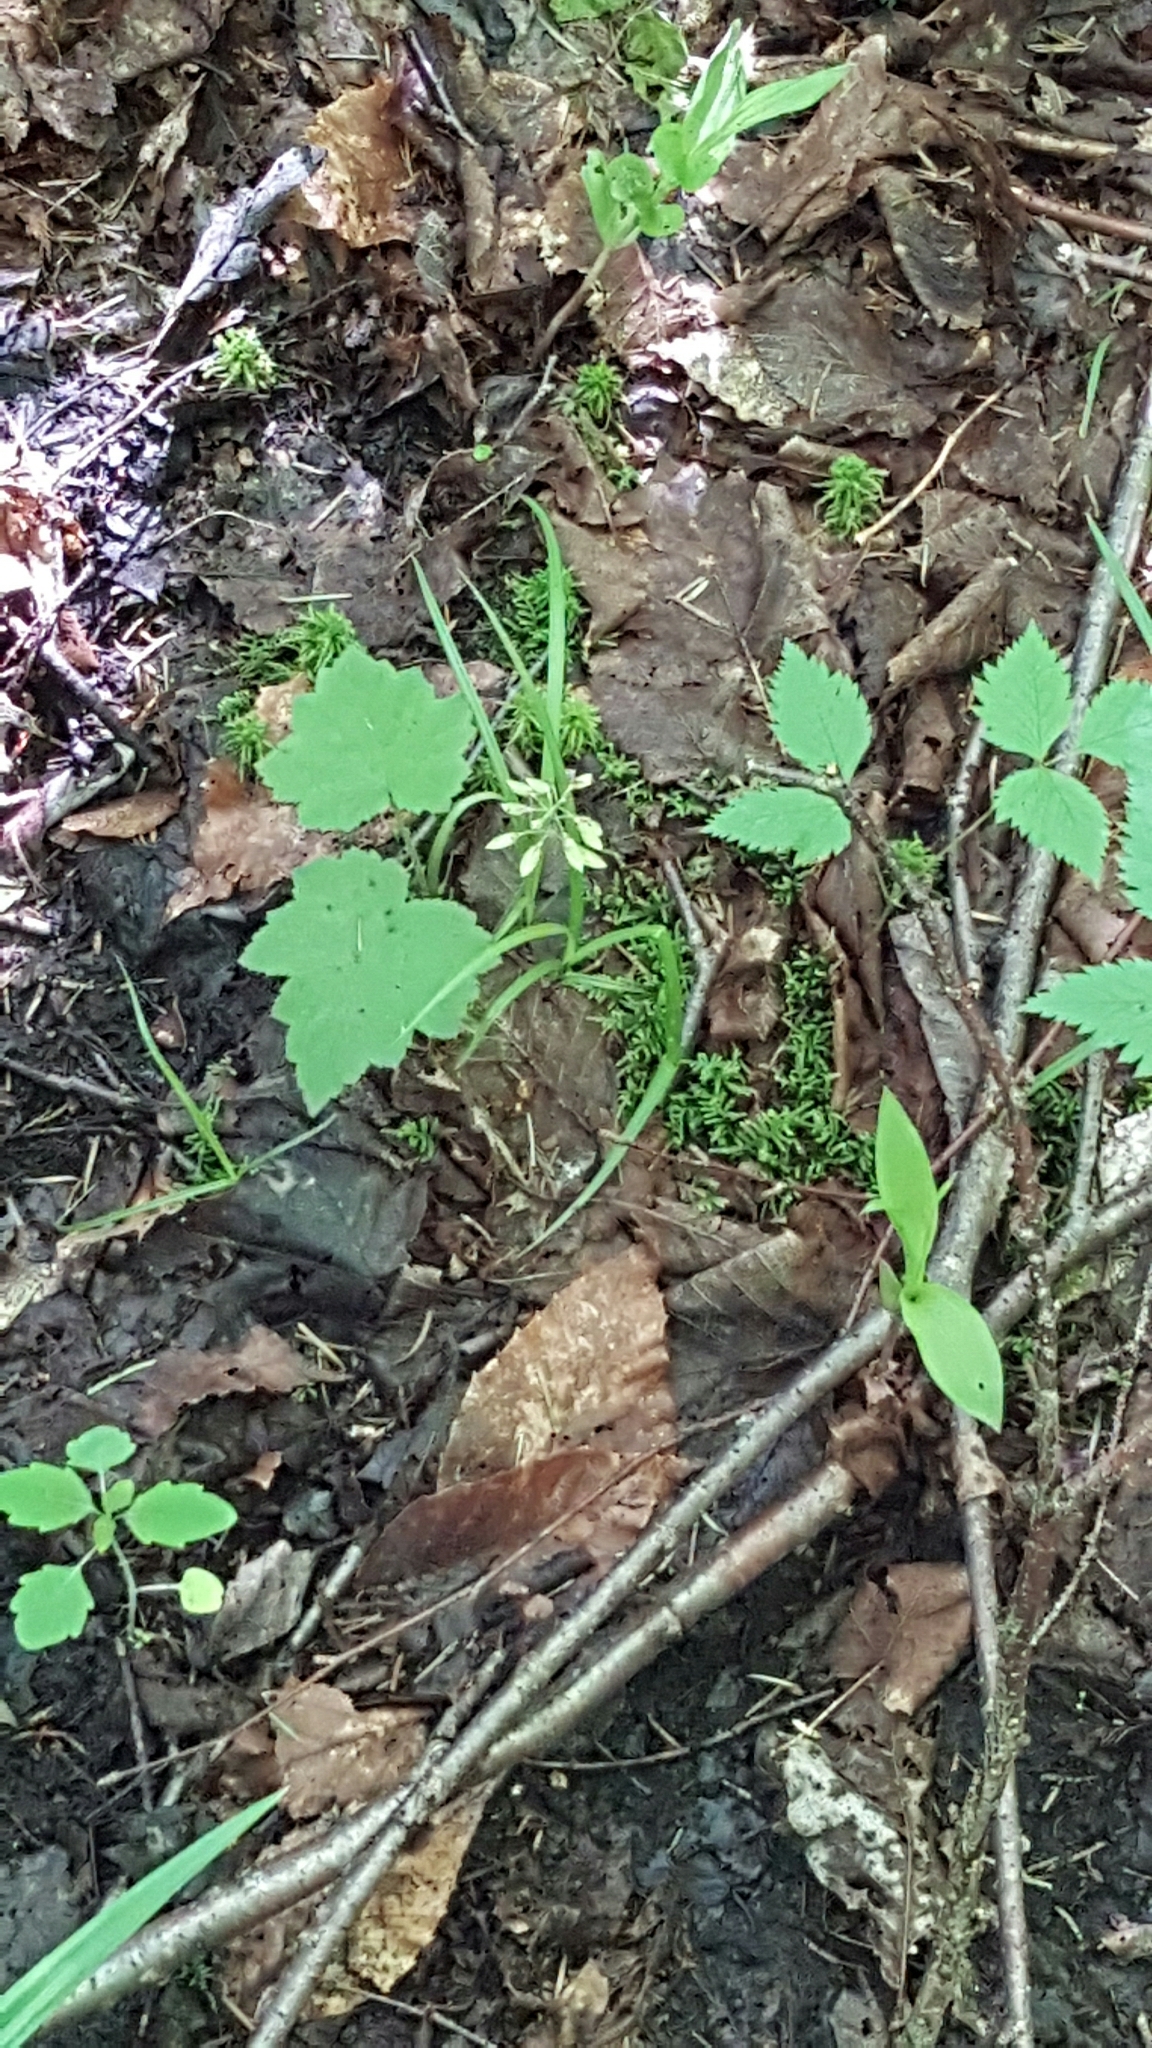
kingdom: Plantae
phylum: Tracheophyta
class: Magnoliopsida
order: Saxifragales
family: Saxifragaceae
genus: Tiarella
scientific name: Tiarella stolonifera
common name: Stoloniferous foamflower
